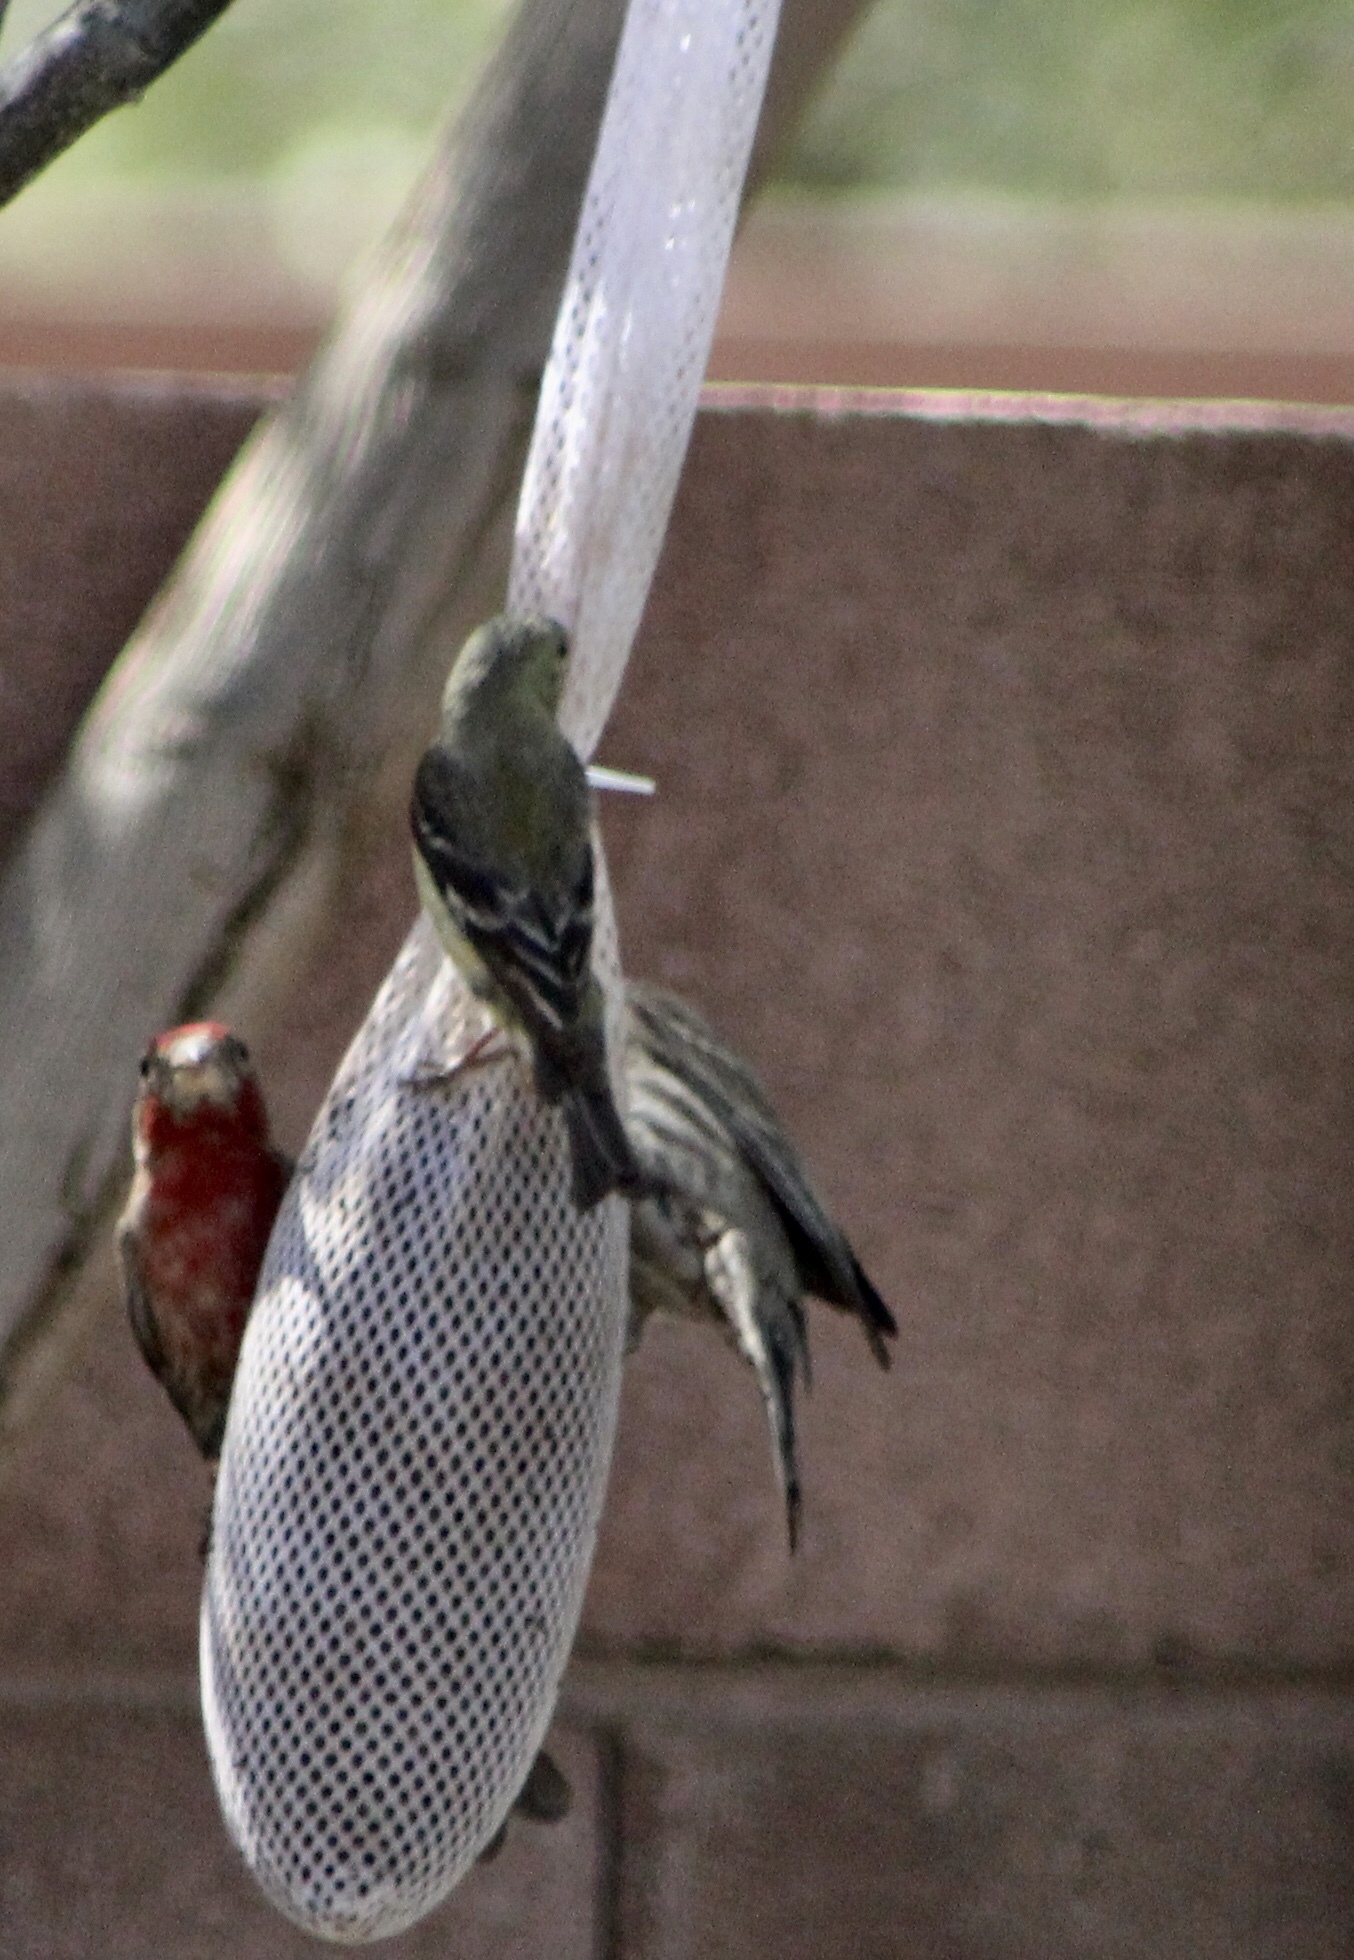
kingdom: Animalia
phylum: Chordata
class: Aves
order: Passeriformes
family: Fringillidae
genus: Spinus
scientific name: Spinus psaltria
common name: Lesser goldfinch
